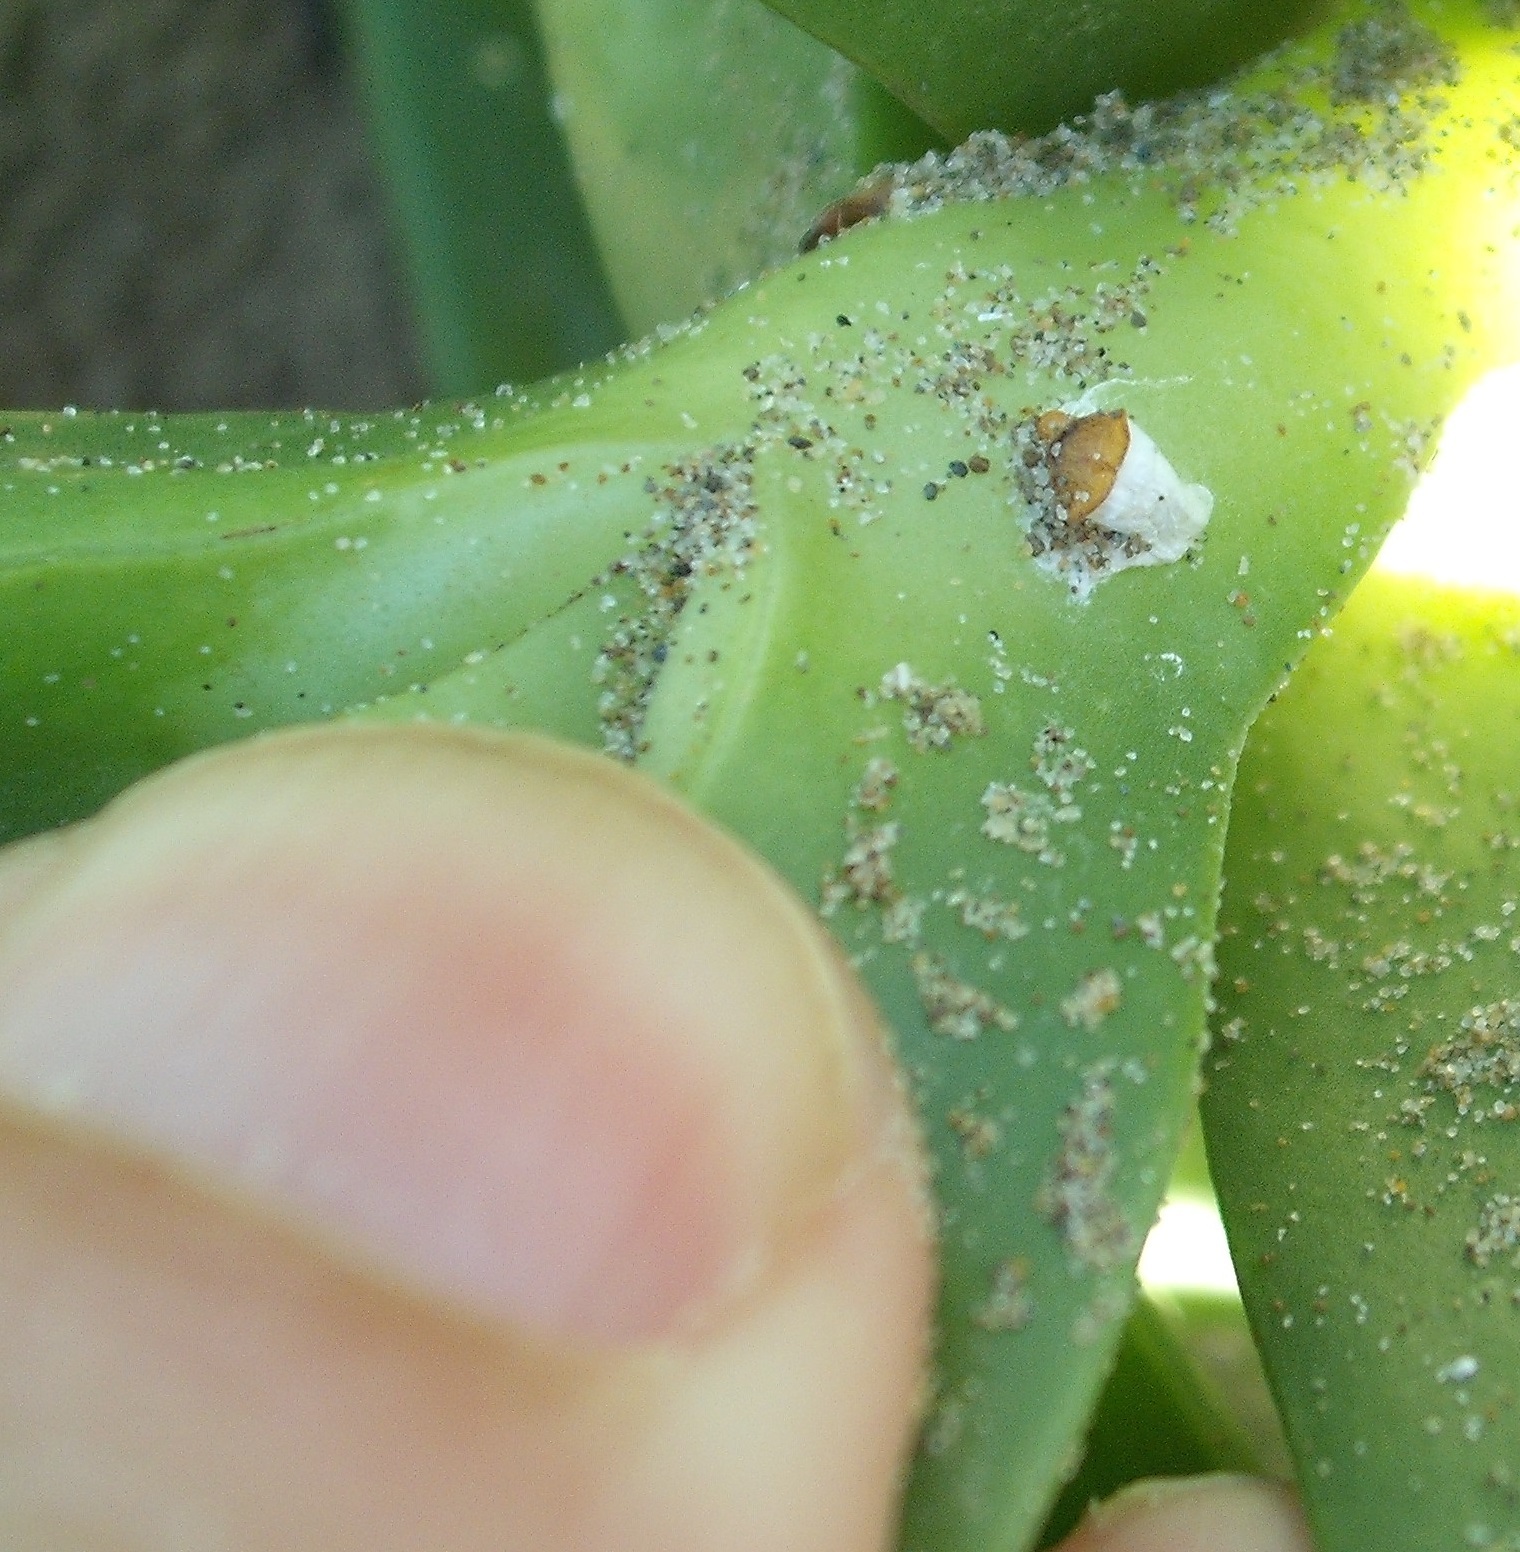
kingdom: Animalia
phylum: Arthropoda
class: Insecta
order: Hemiptera
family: Coccidae
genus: Pulvinariella
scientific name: Pulvinariella mesembryanthemi
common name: Cottony pigface scale
